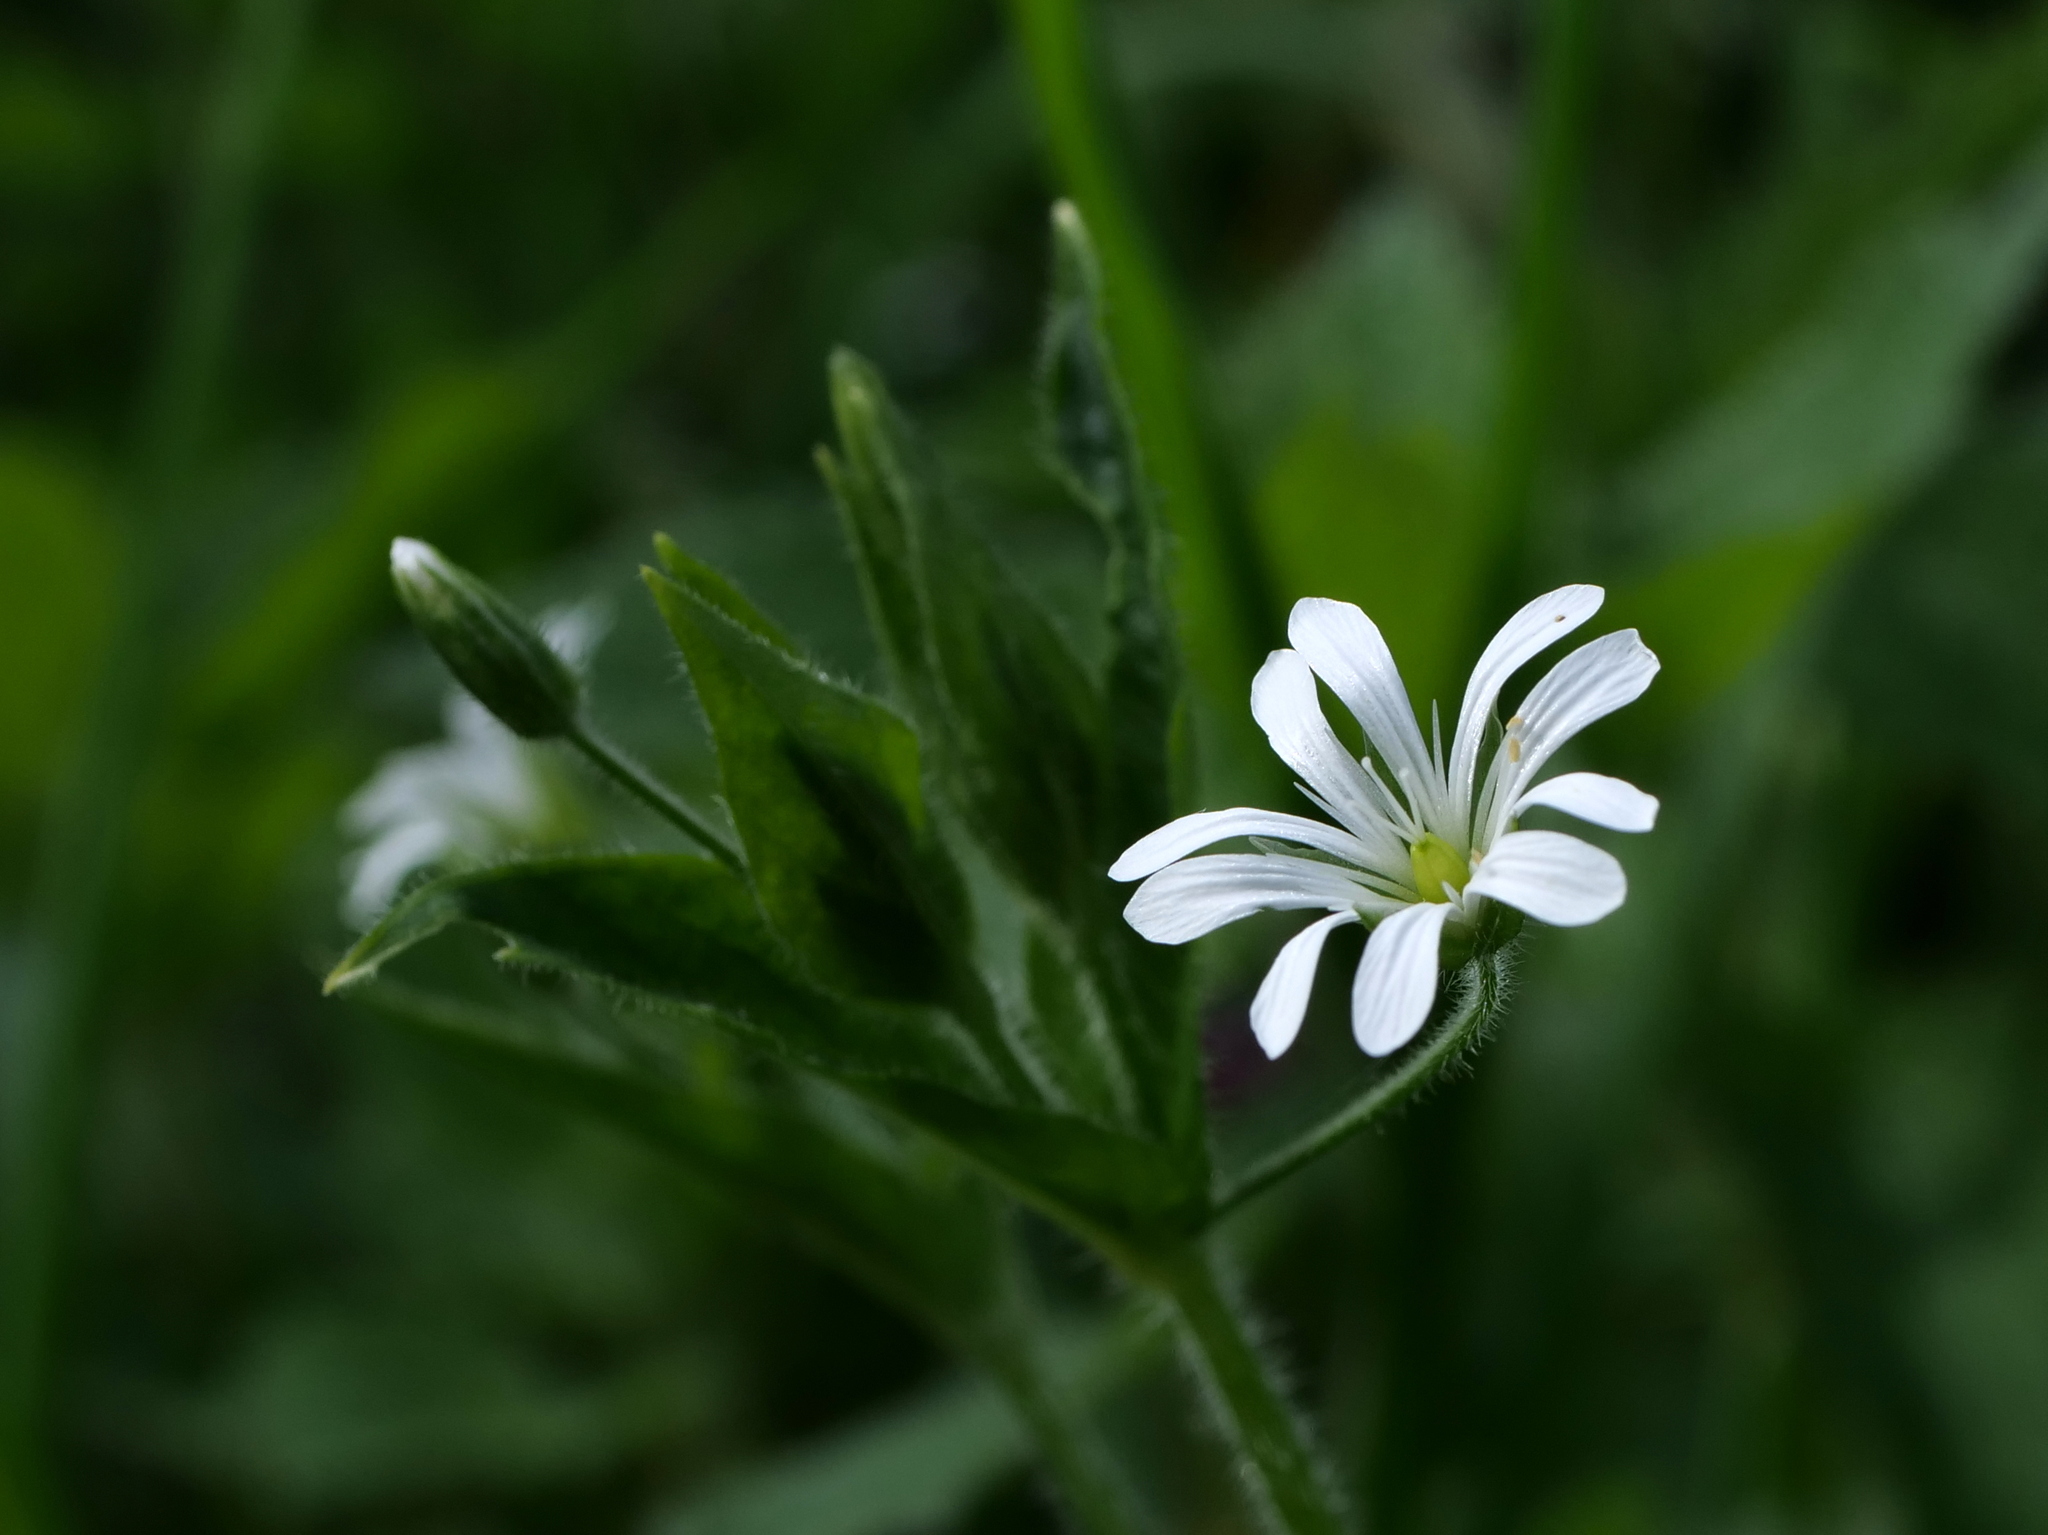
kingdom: Plantae
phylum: Tracheophyta
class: Magnoliopsida
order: Caryophyllales
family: Caryophyllaceae
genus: Stellaria
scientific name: Stellaria nemorum
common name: Wood stitchwort
